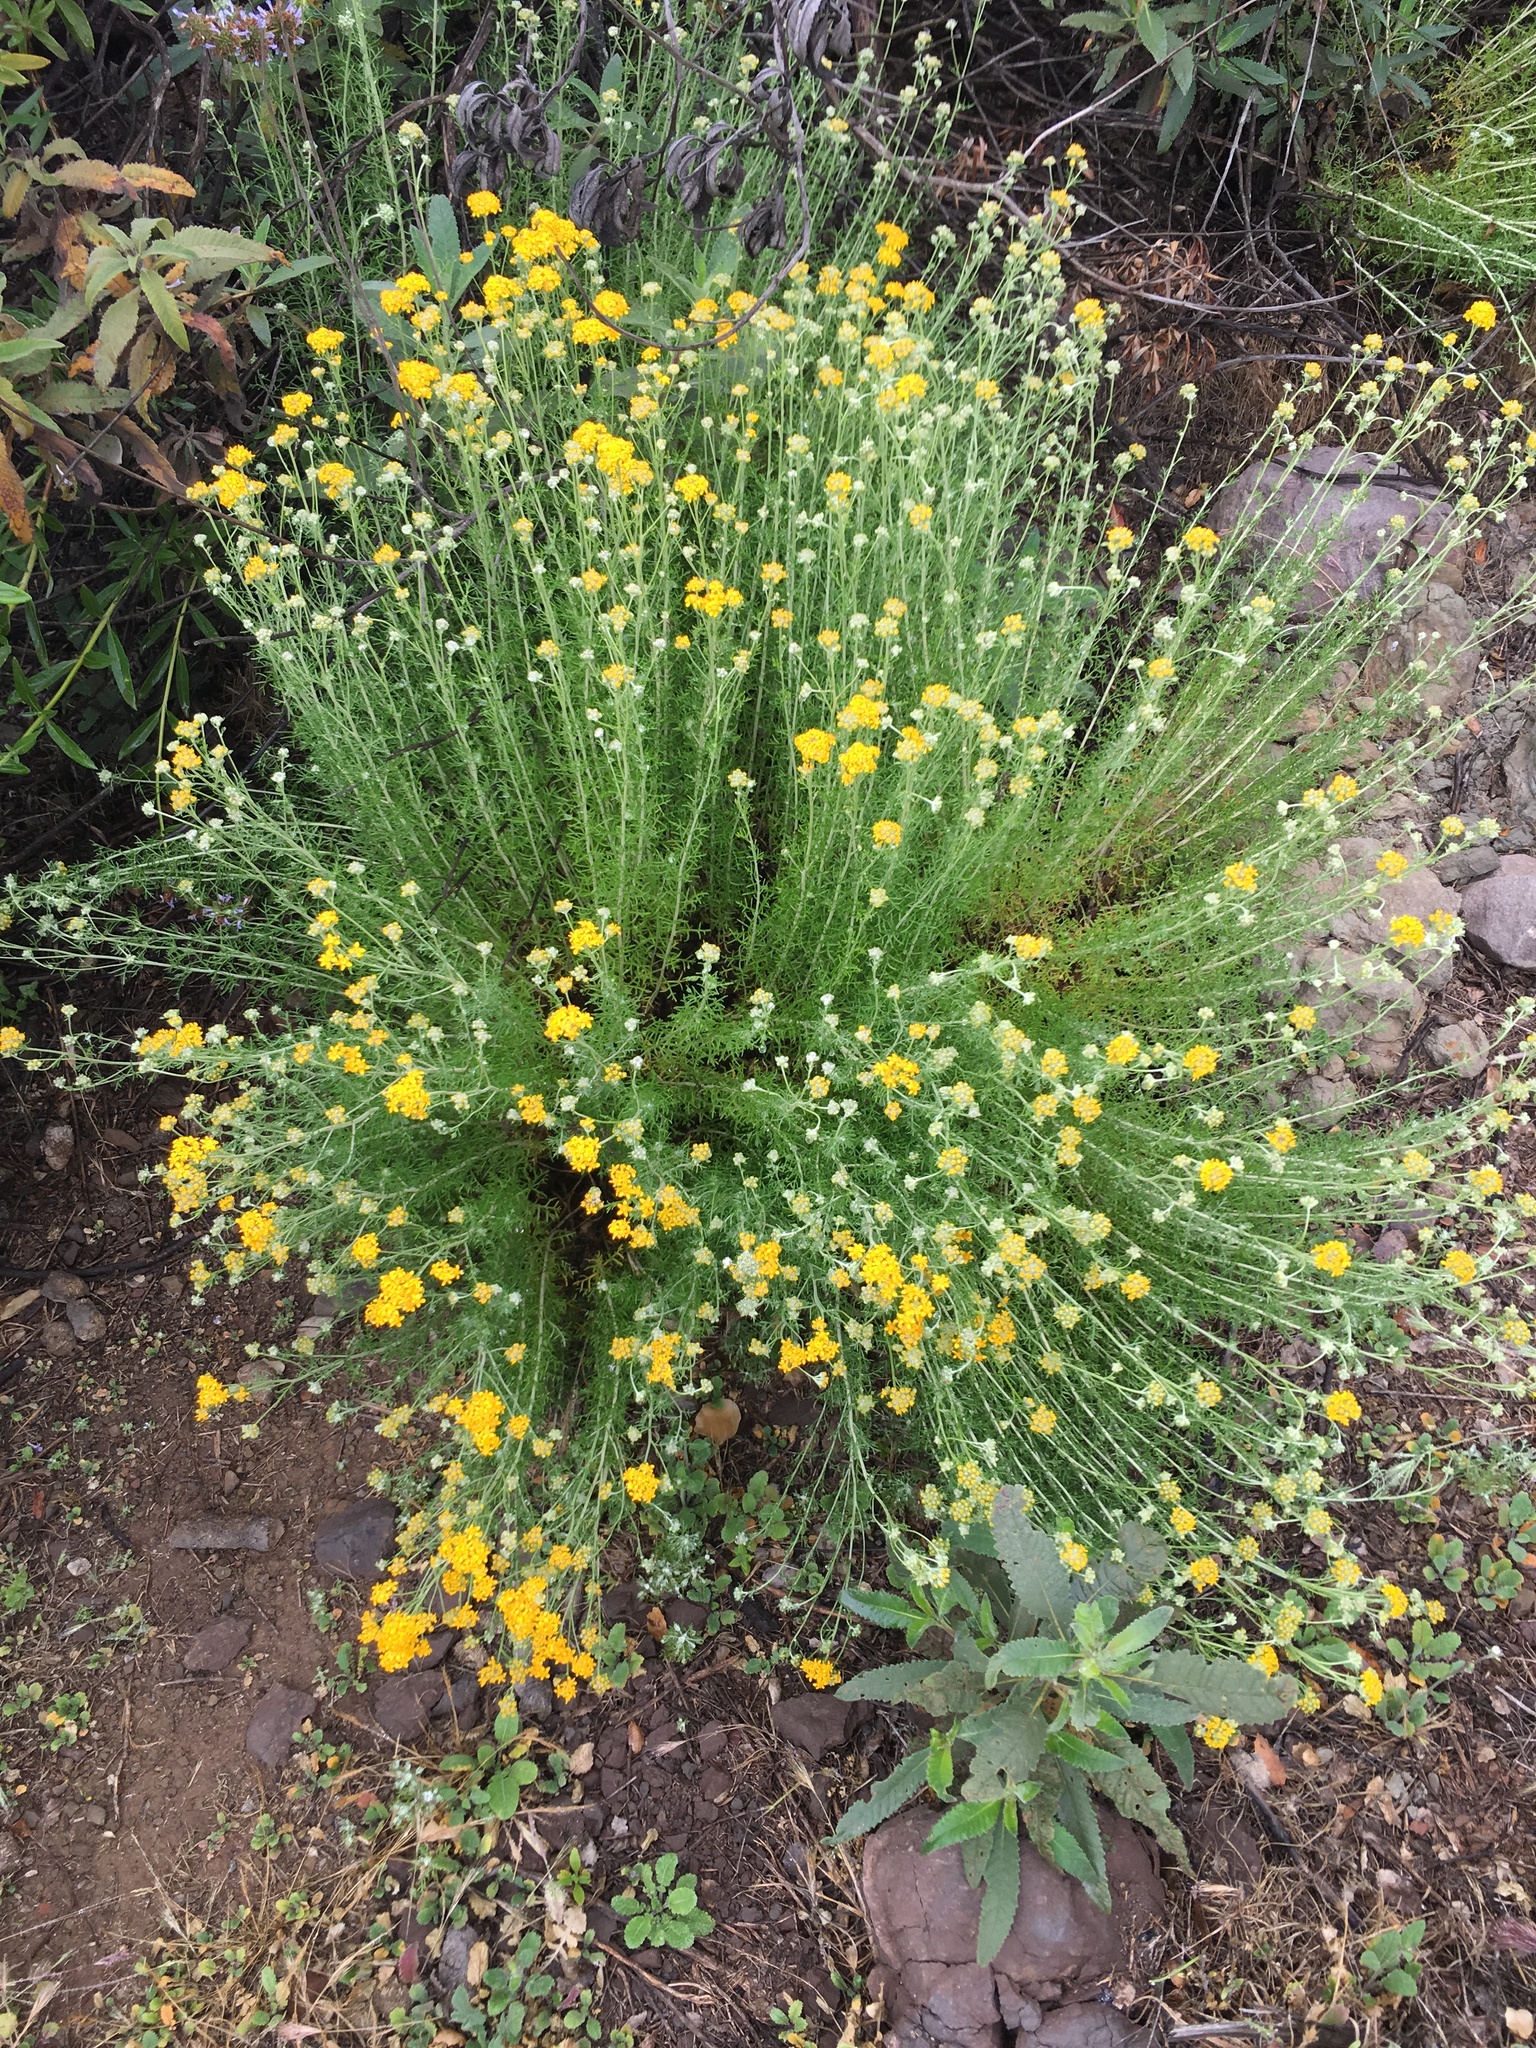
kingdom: Plantae
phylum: Tracheophyta
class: Magnoliopsida
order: Asterales
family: Asteraceae
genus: Eriophyllum
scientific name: Eriophyllum confertiflorum
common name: Golden-yarrow
